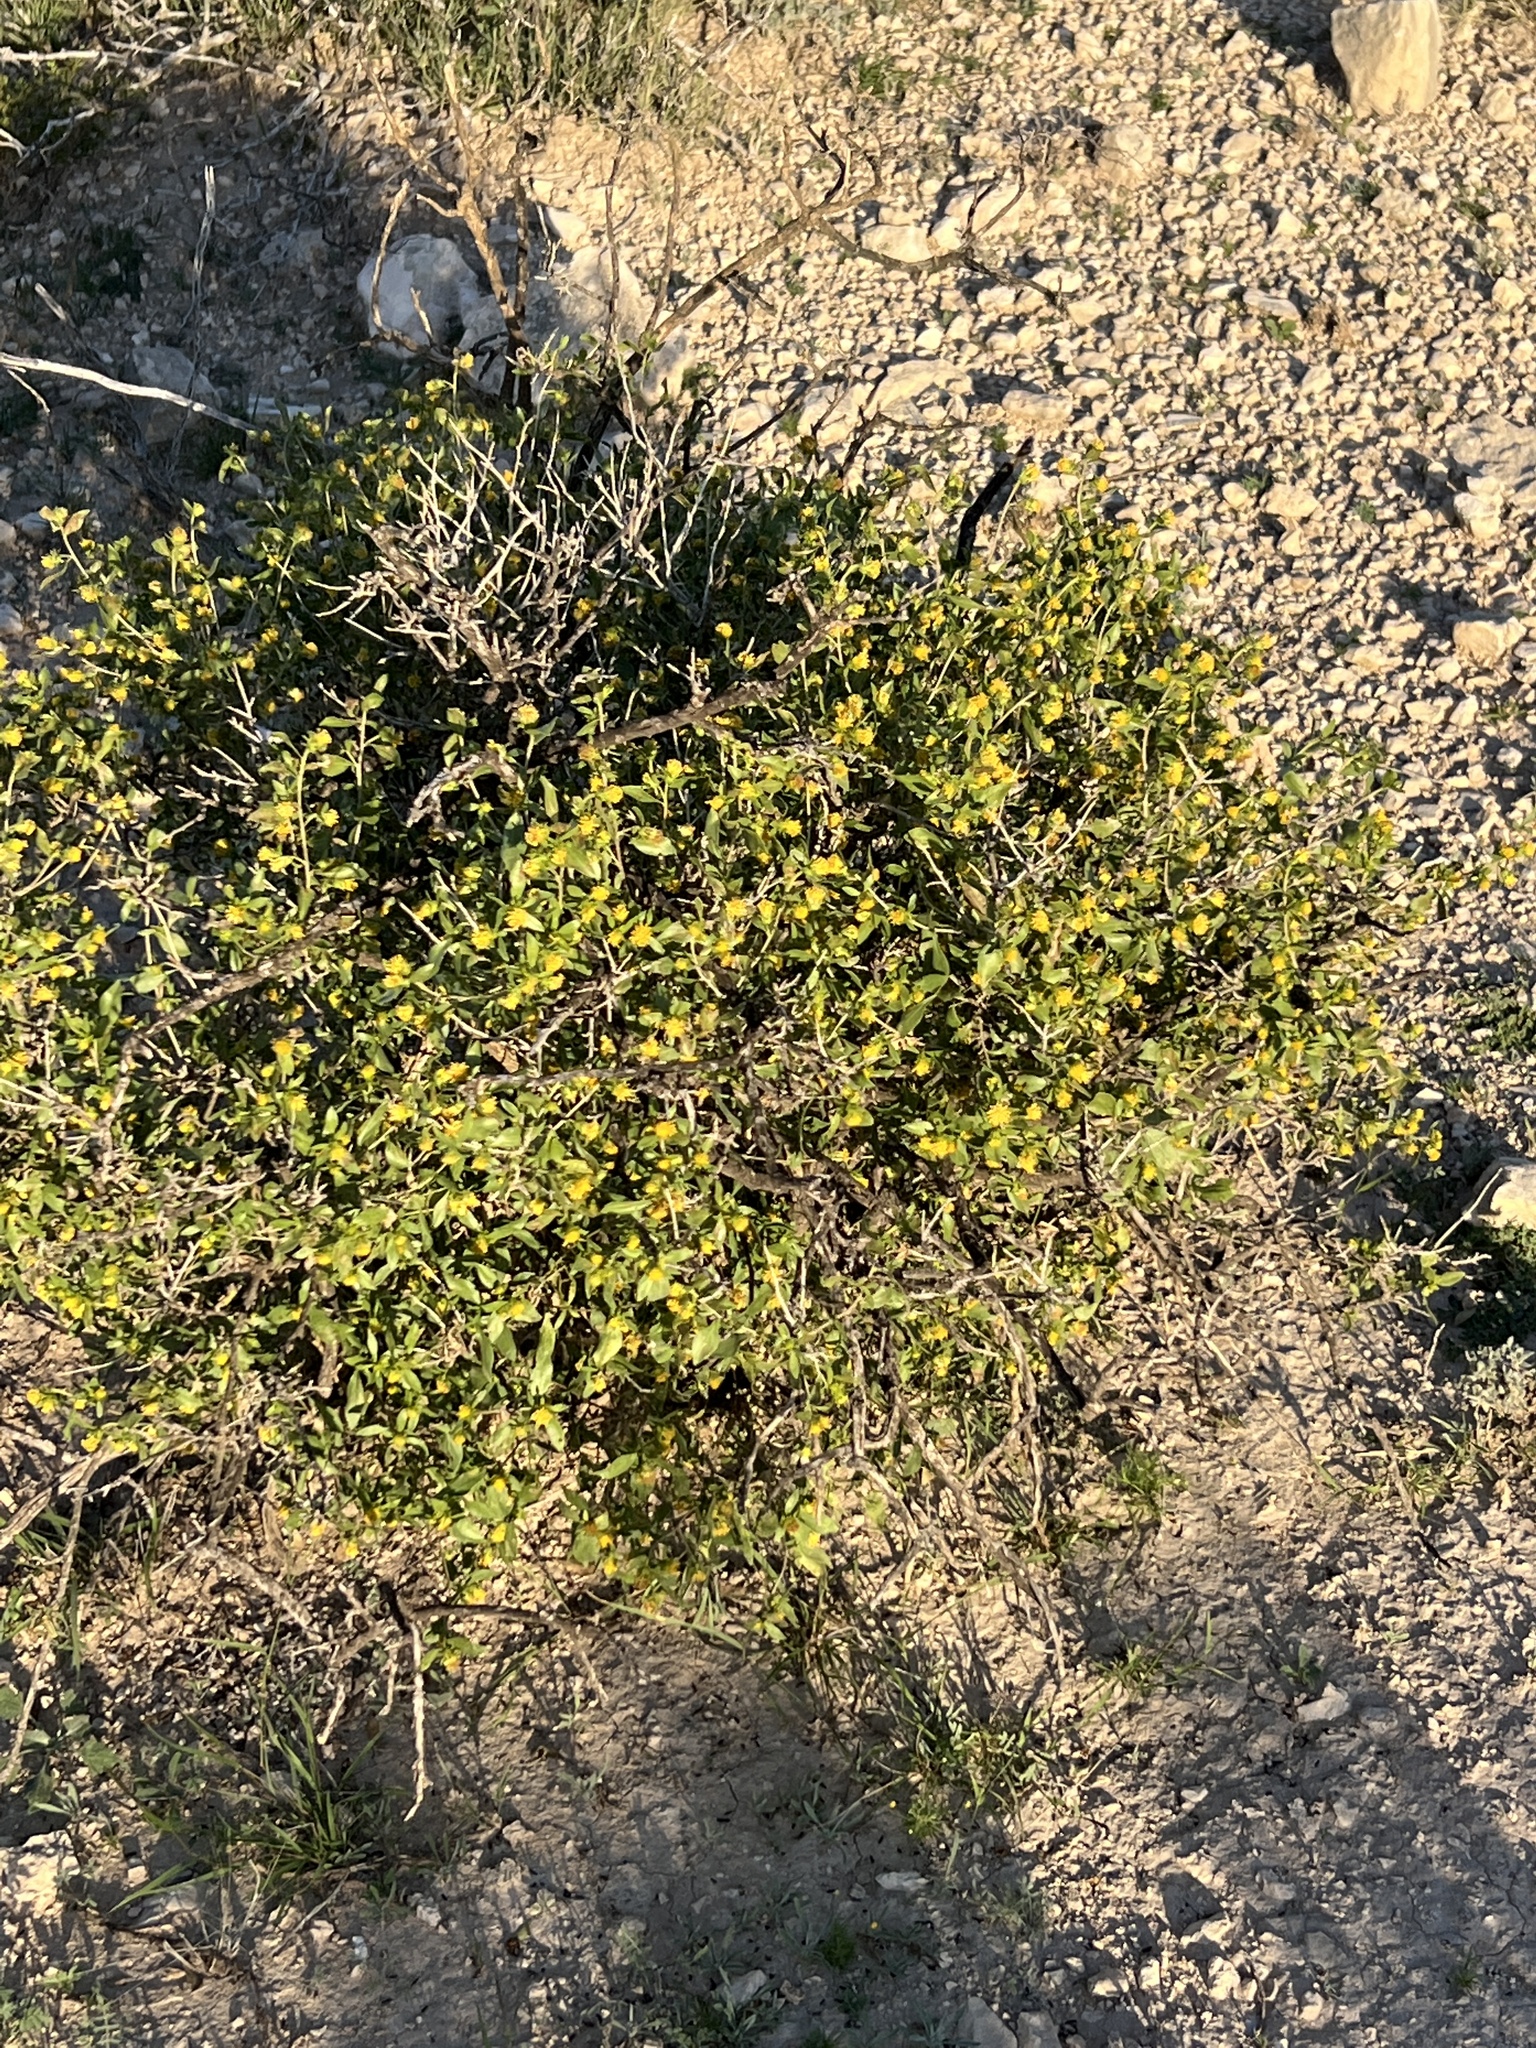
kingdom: Plantae
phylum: Tracheophyta
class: Magnoliopsida
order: Asterales
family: Asteraceae
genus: Flourensia
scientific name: Flourensia cernua
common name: Varnishbush
